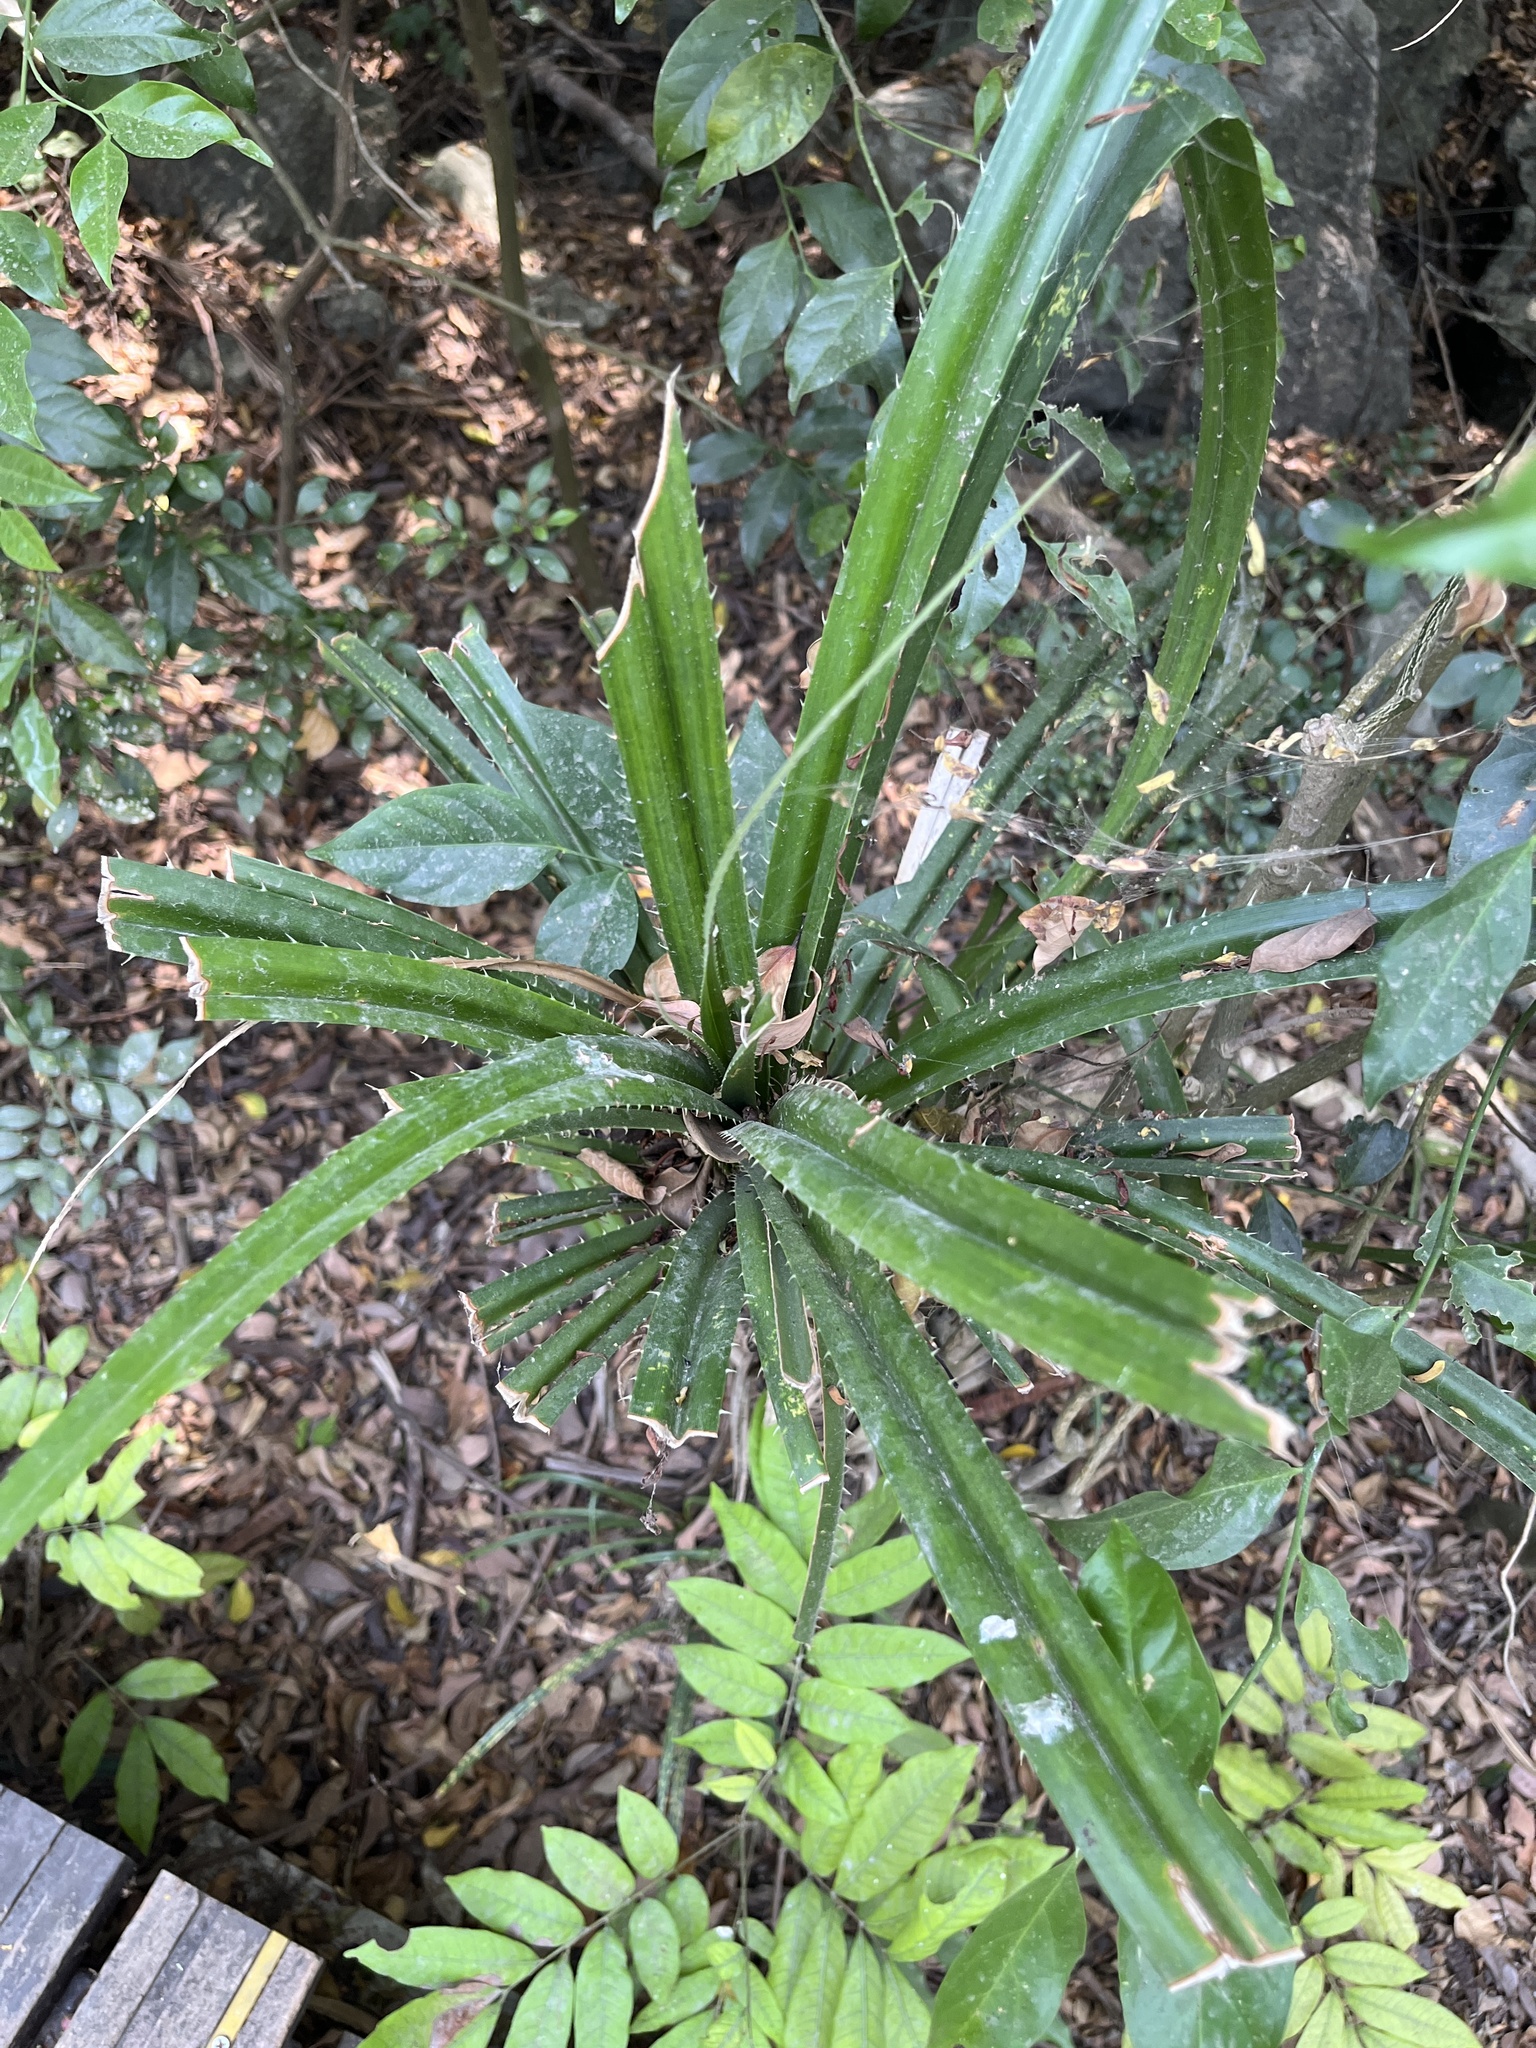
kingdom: Plantae
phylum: Tracheophyta
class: Liliopsida
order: Pandanales
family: Pandanaceae
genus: Pandanus
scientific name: Pandanus odorifer
